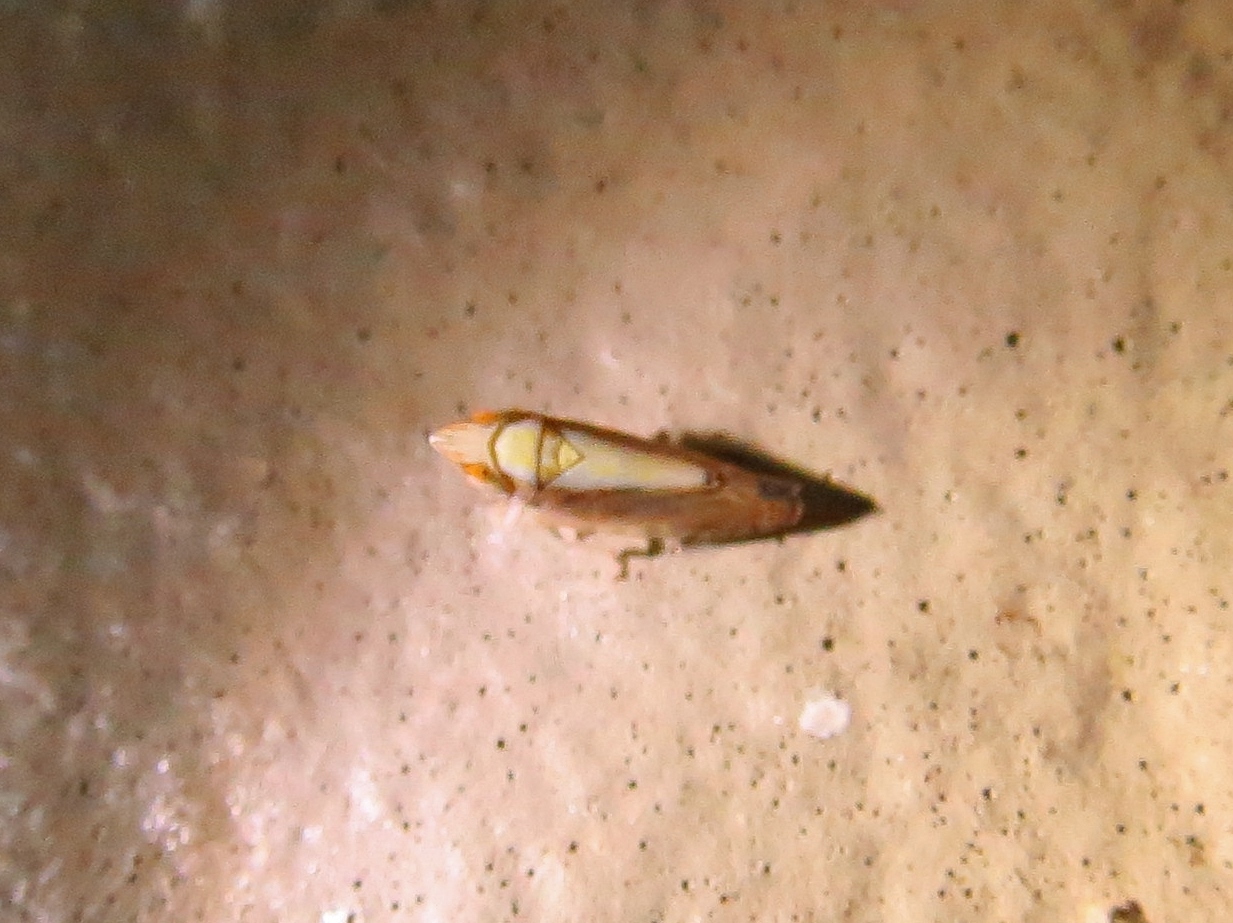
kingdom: Animalia
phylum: Arthropoda
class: Insecta
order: Hemiptera
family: Cicadellidae
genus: Scaphytopius
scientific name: Scaphytopius elegans
